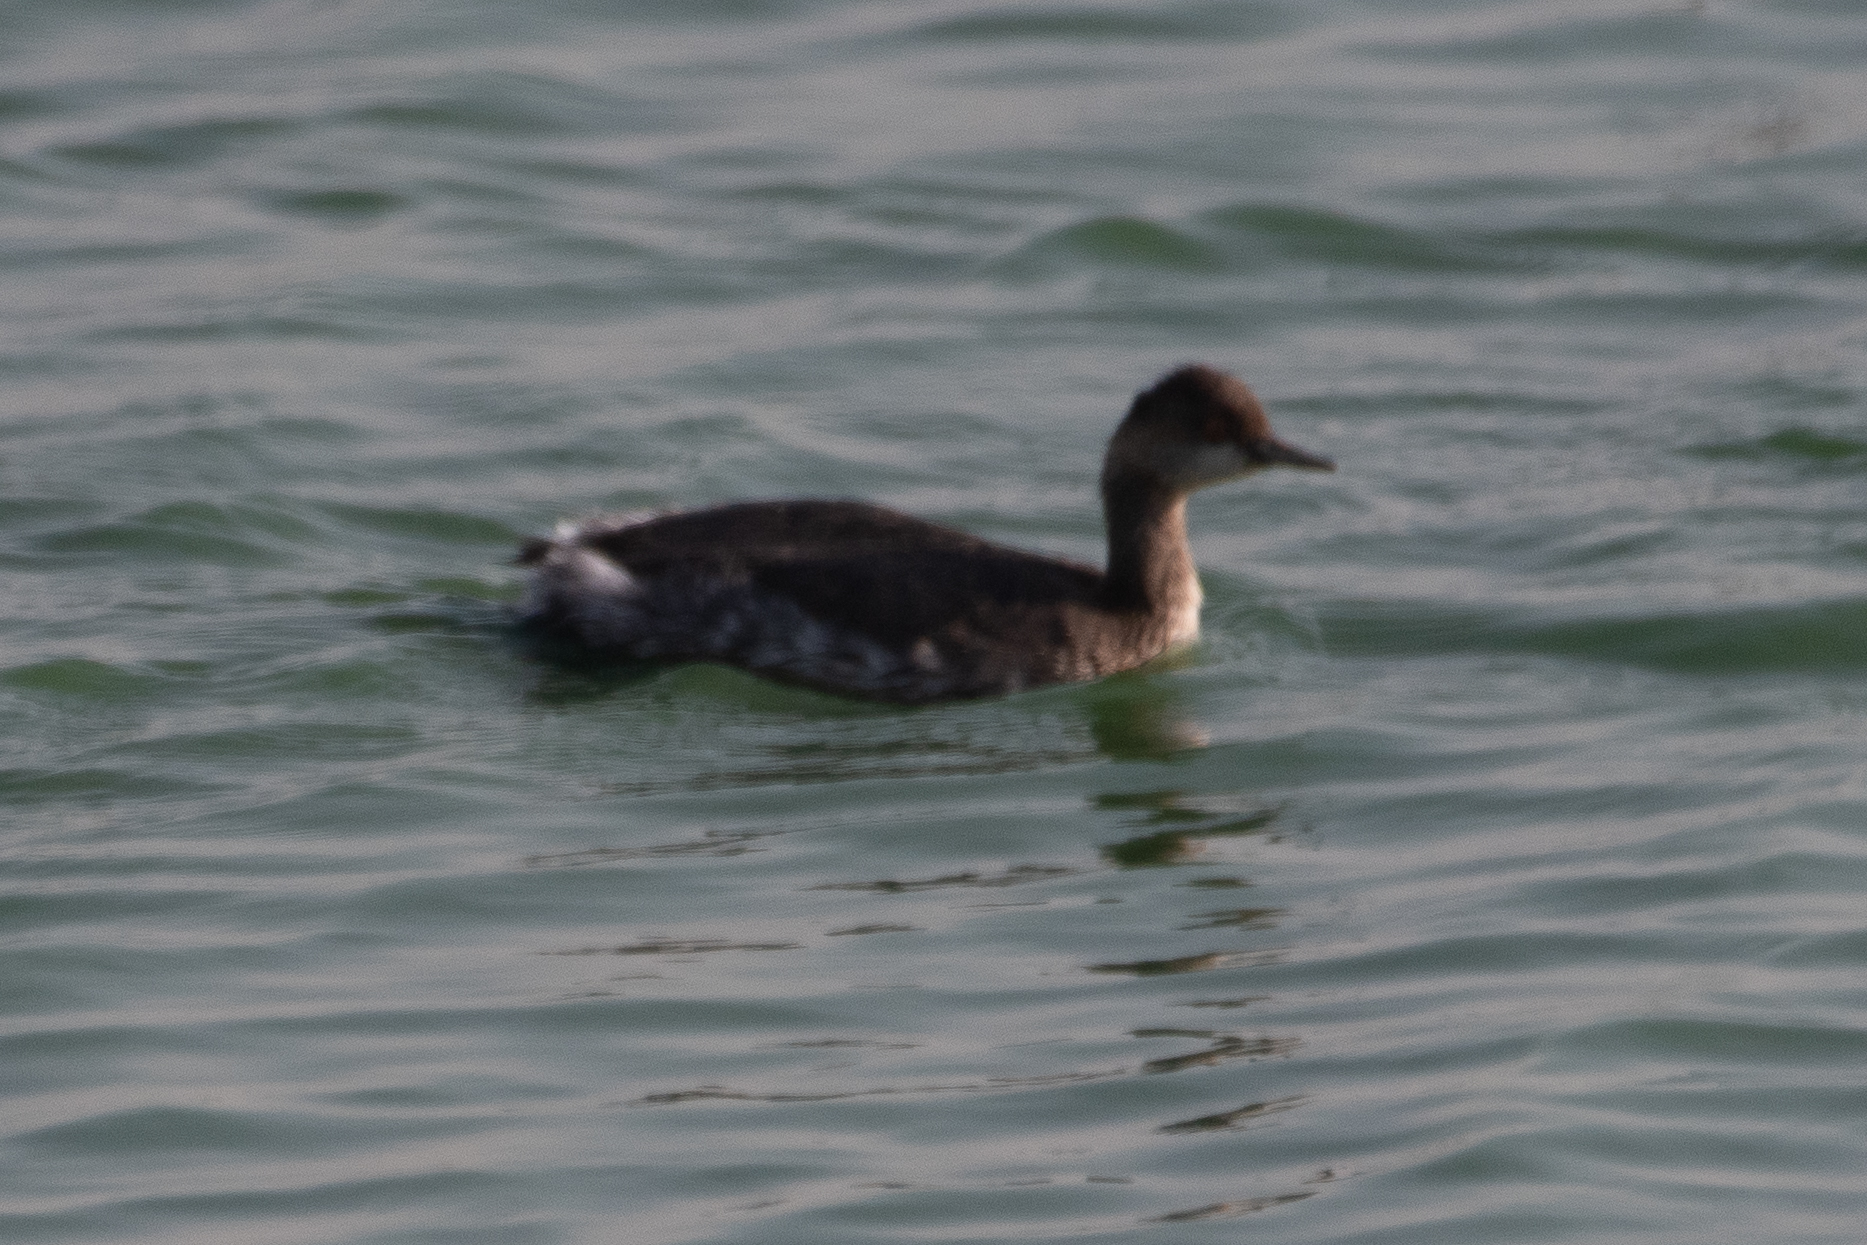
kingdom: Animalia
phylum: Chordata
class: Aves
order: Podicipediformes
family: Podicipedidae
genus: Podiceps
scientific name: Podiceps nigricollis
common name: Black-necked grebe
